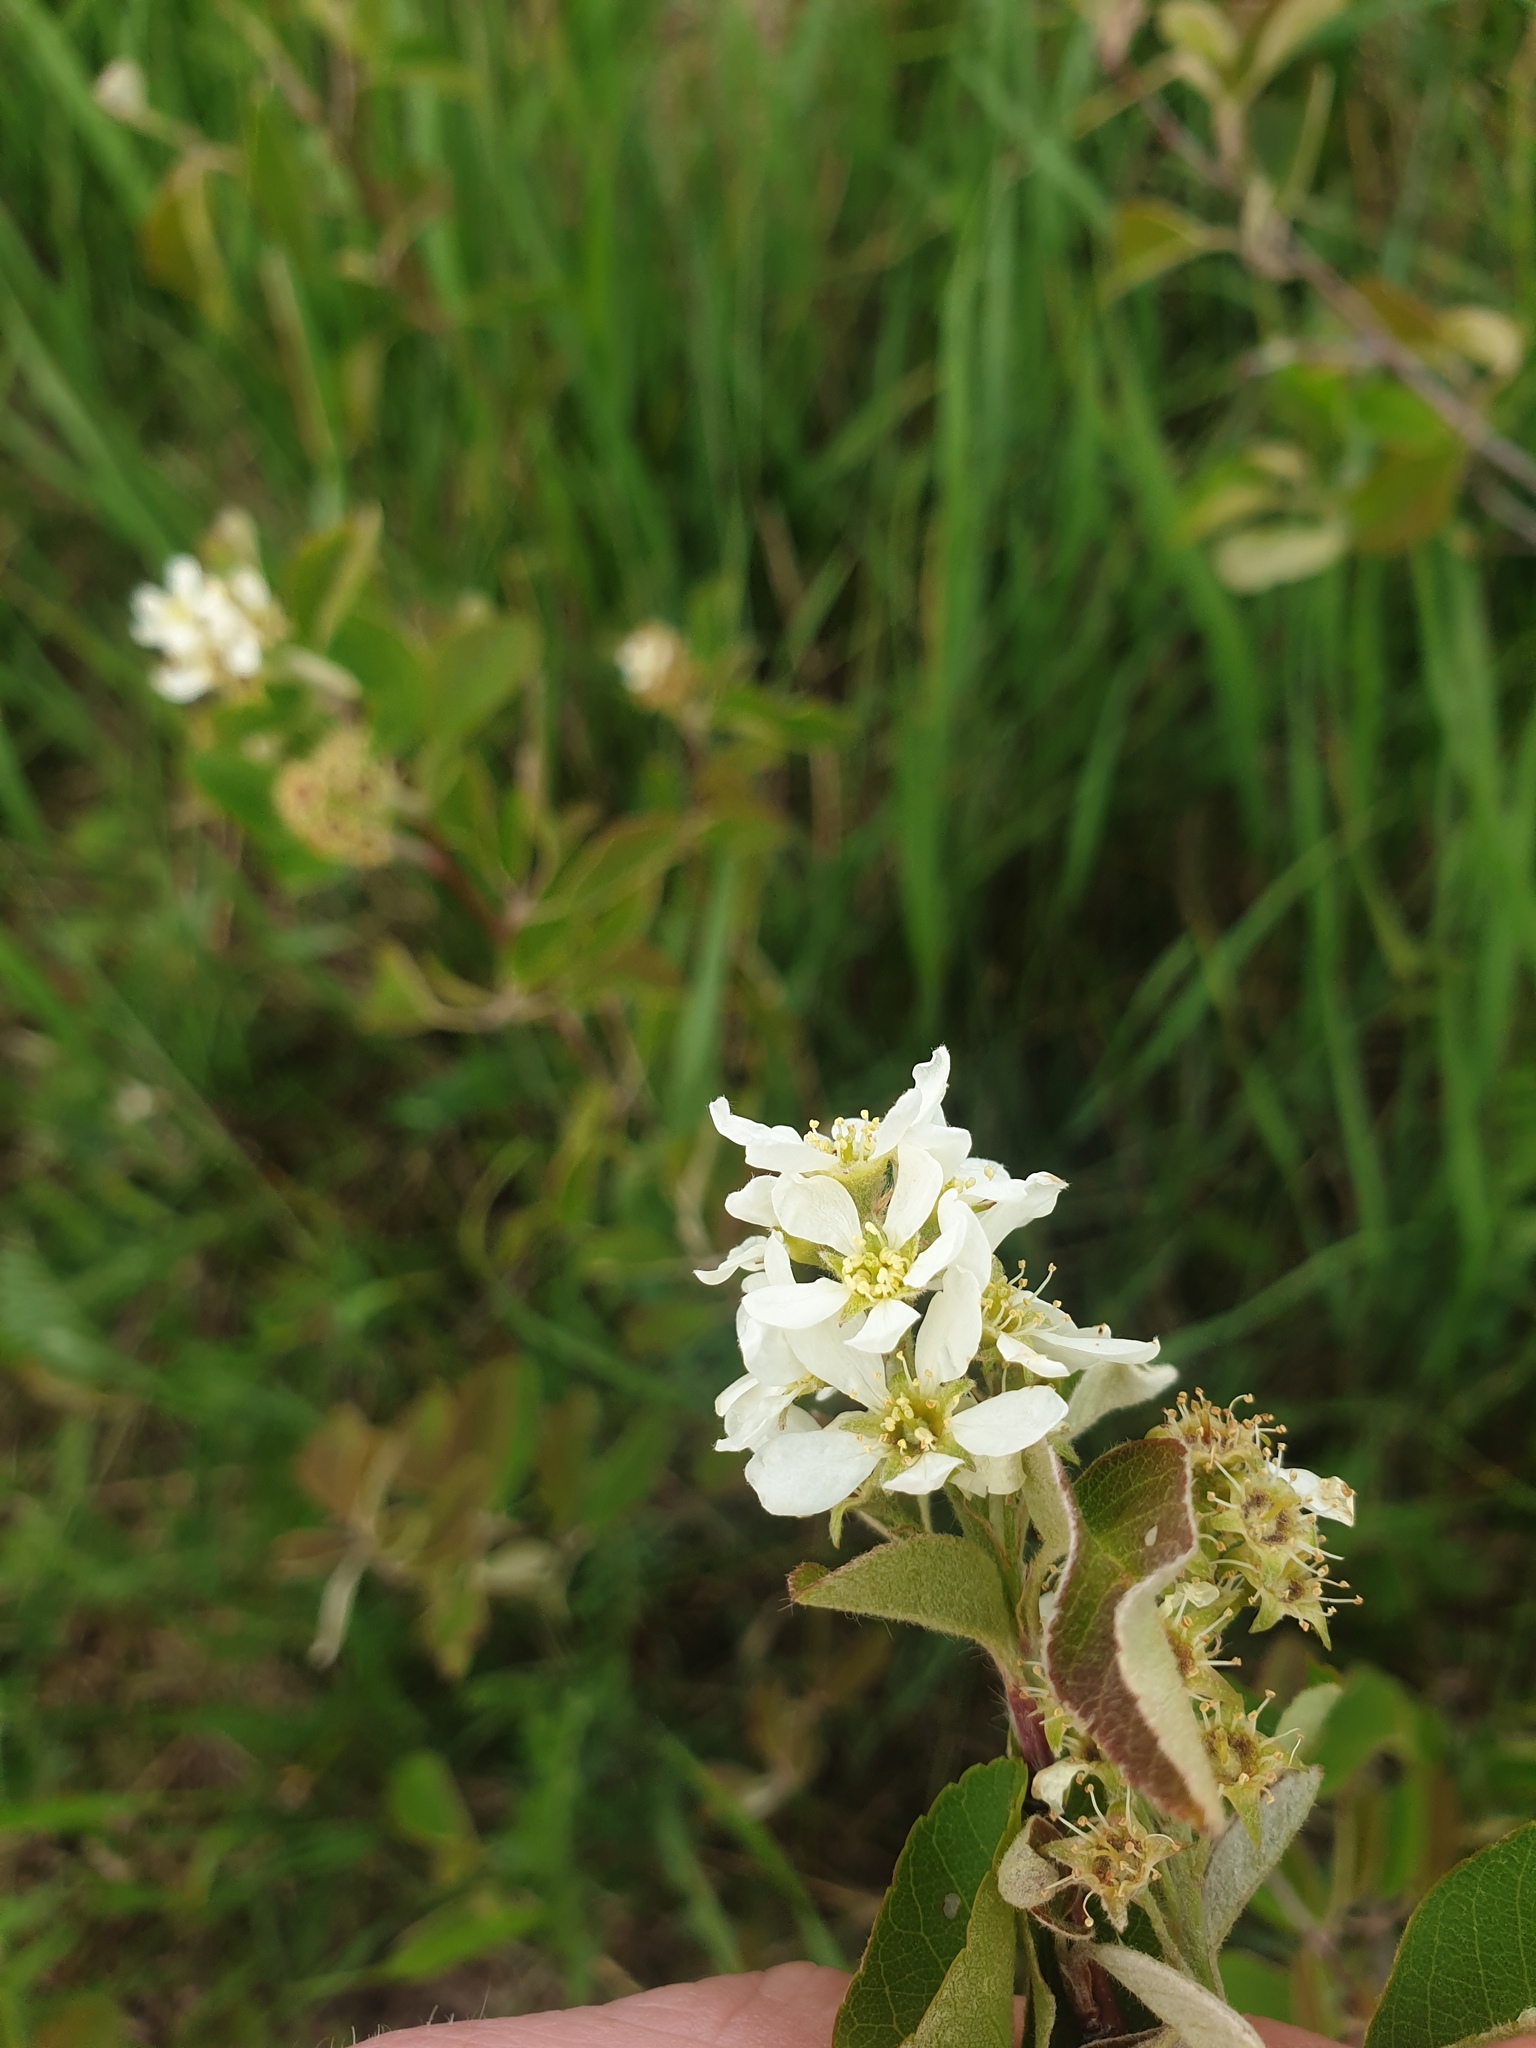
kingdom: Plantae
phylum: Tracheophyta
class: Magnoliopsida
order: Rosales
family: Rosaceae
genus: Amelanchier
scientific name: Amelanchier humilis
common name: Low juneberry
